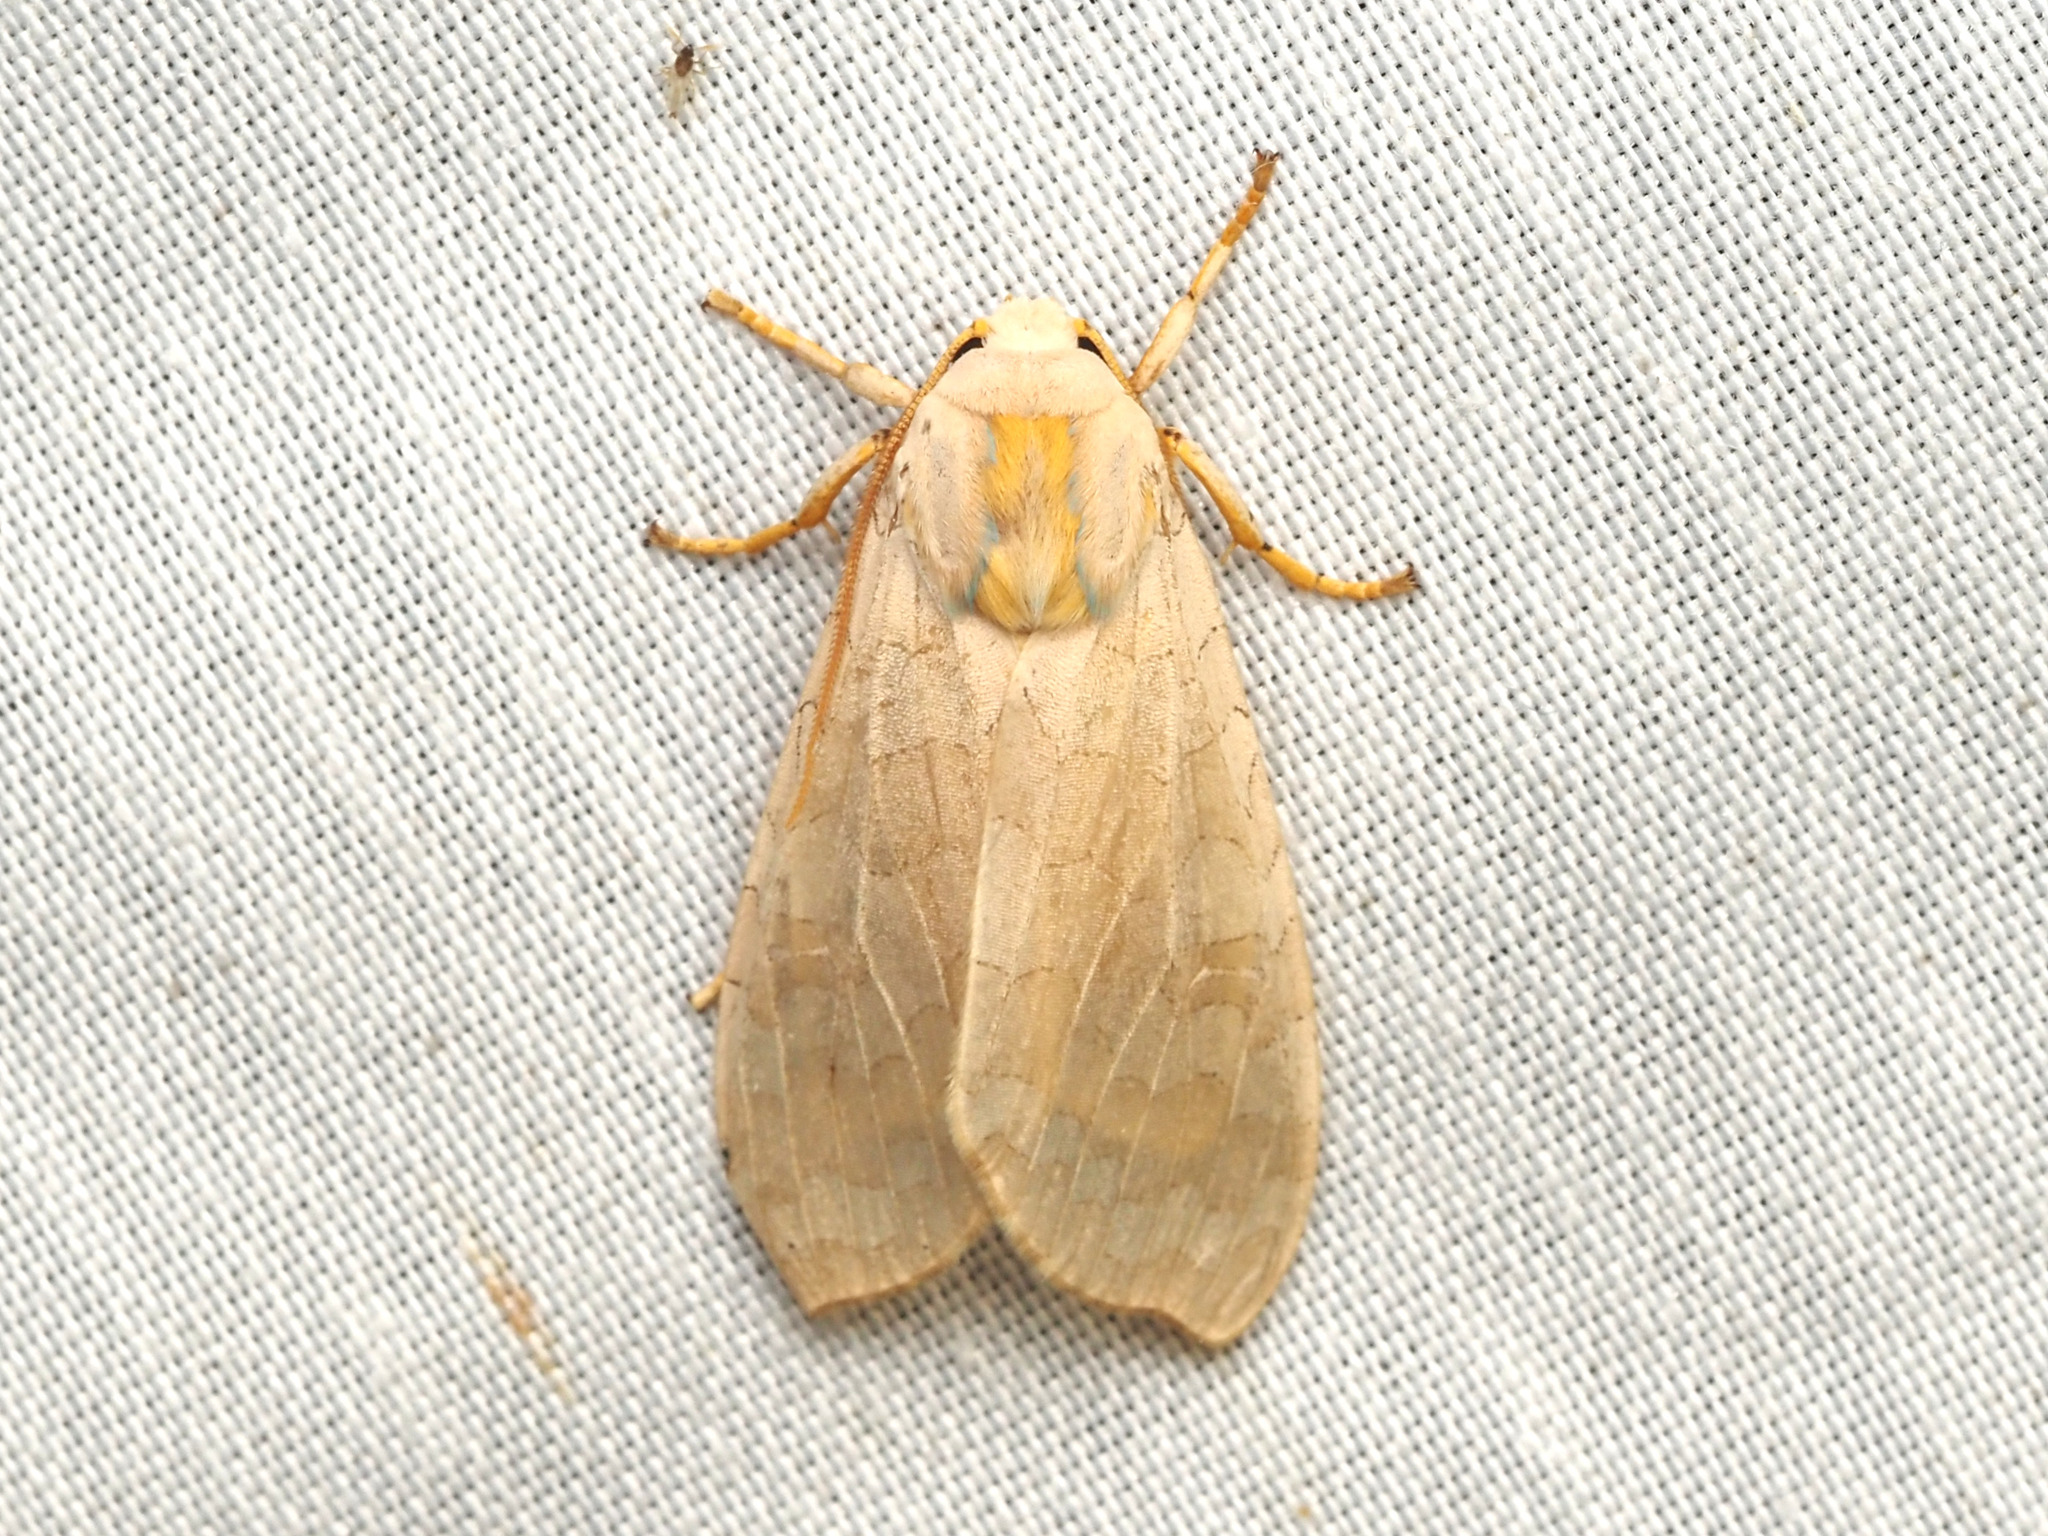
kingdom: Animalia
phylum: Arthropoda
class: Insecta
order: Lepidoptera
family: Erebidae
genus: Halysidota
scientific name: Halysidota
